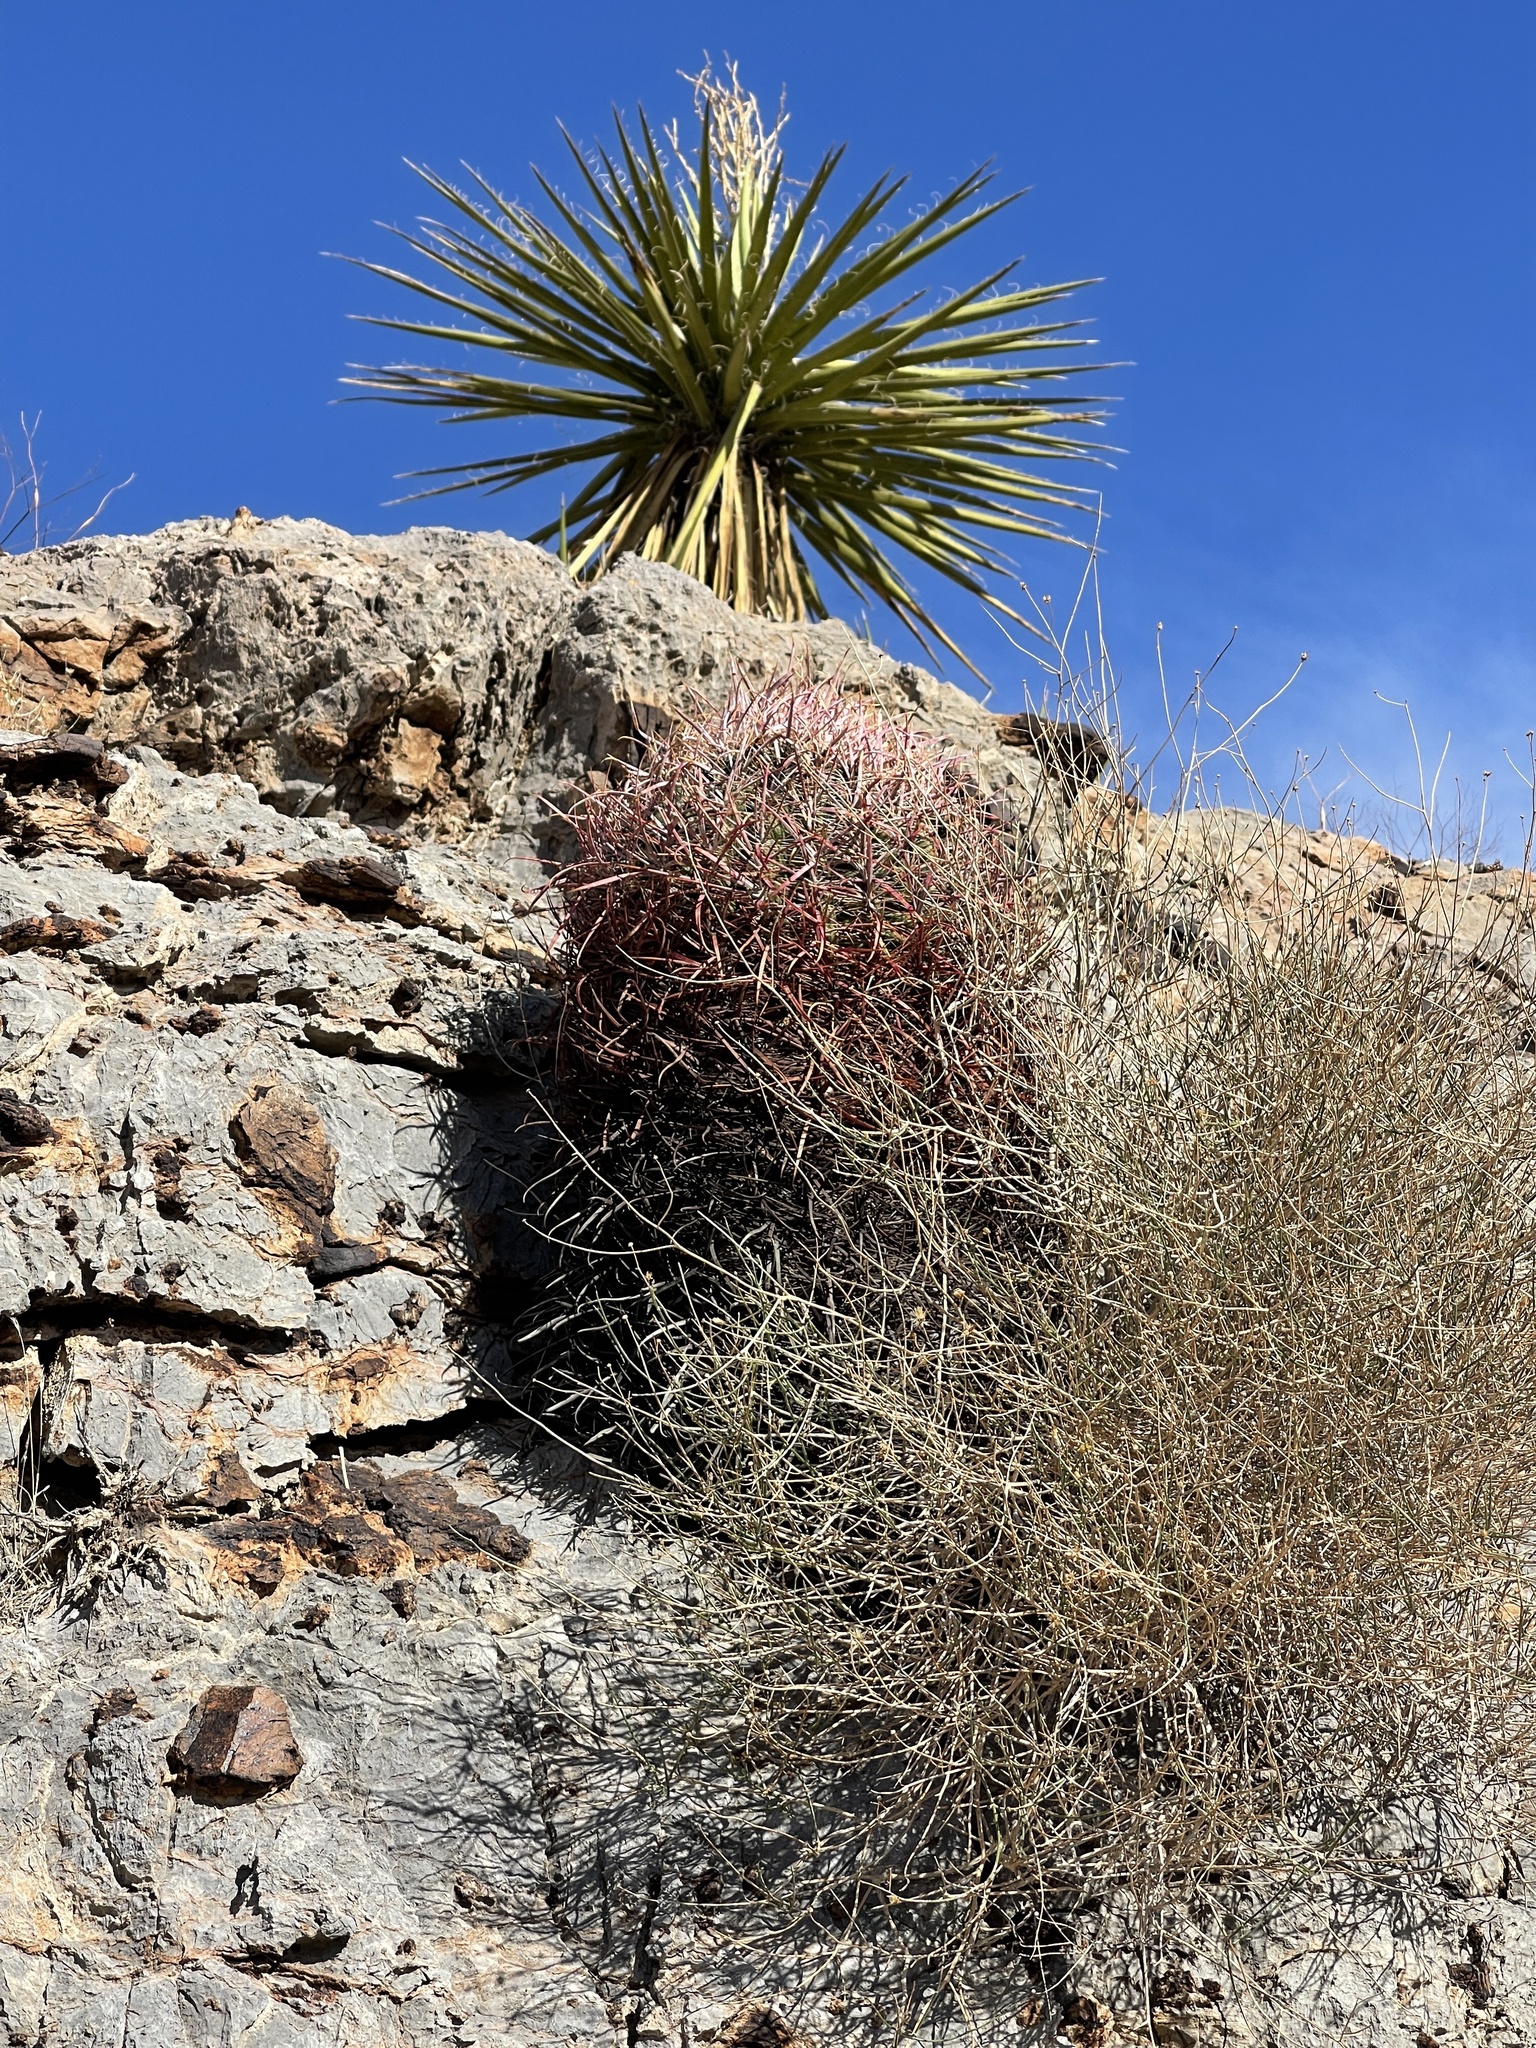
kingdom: Plantae
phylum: Tracheophyta
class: Magnoliopsida
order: Caryophyllales
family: Cactaceae
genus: Ferocactus
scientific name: Ferocactus cylindraceus
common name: California barrel cactus
